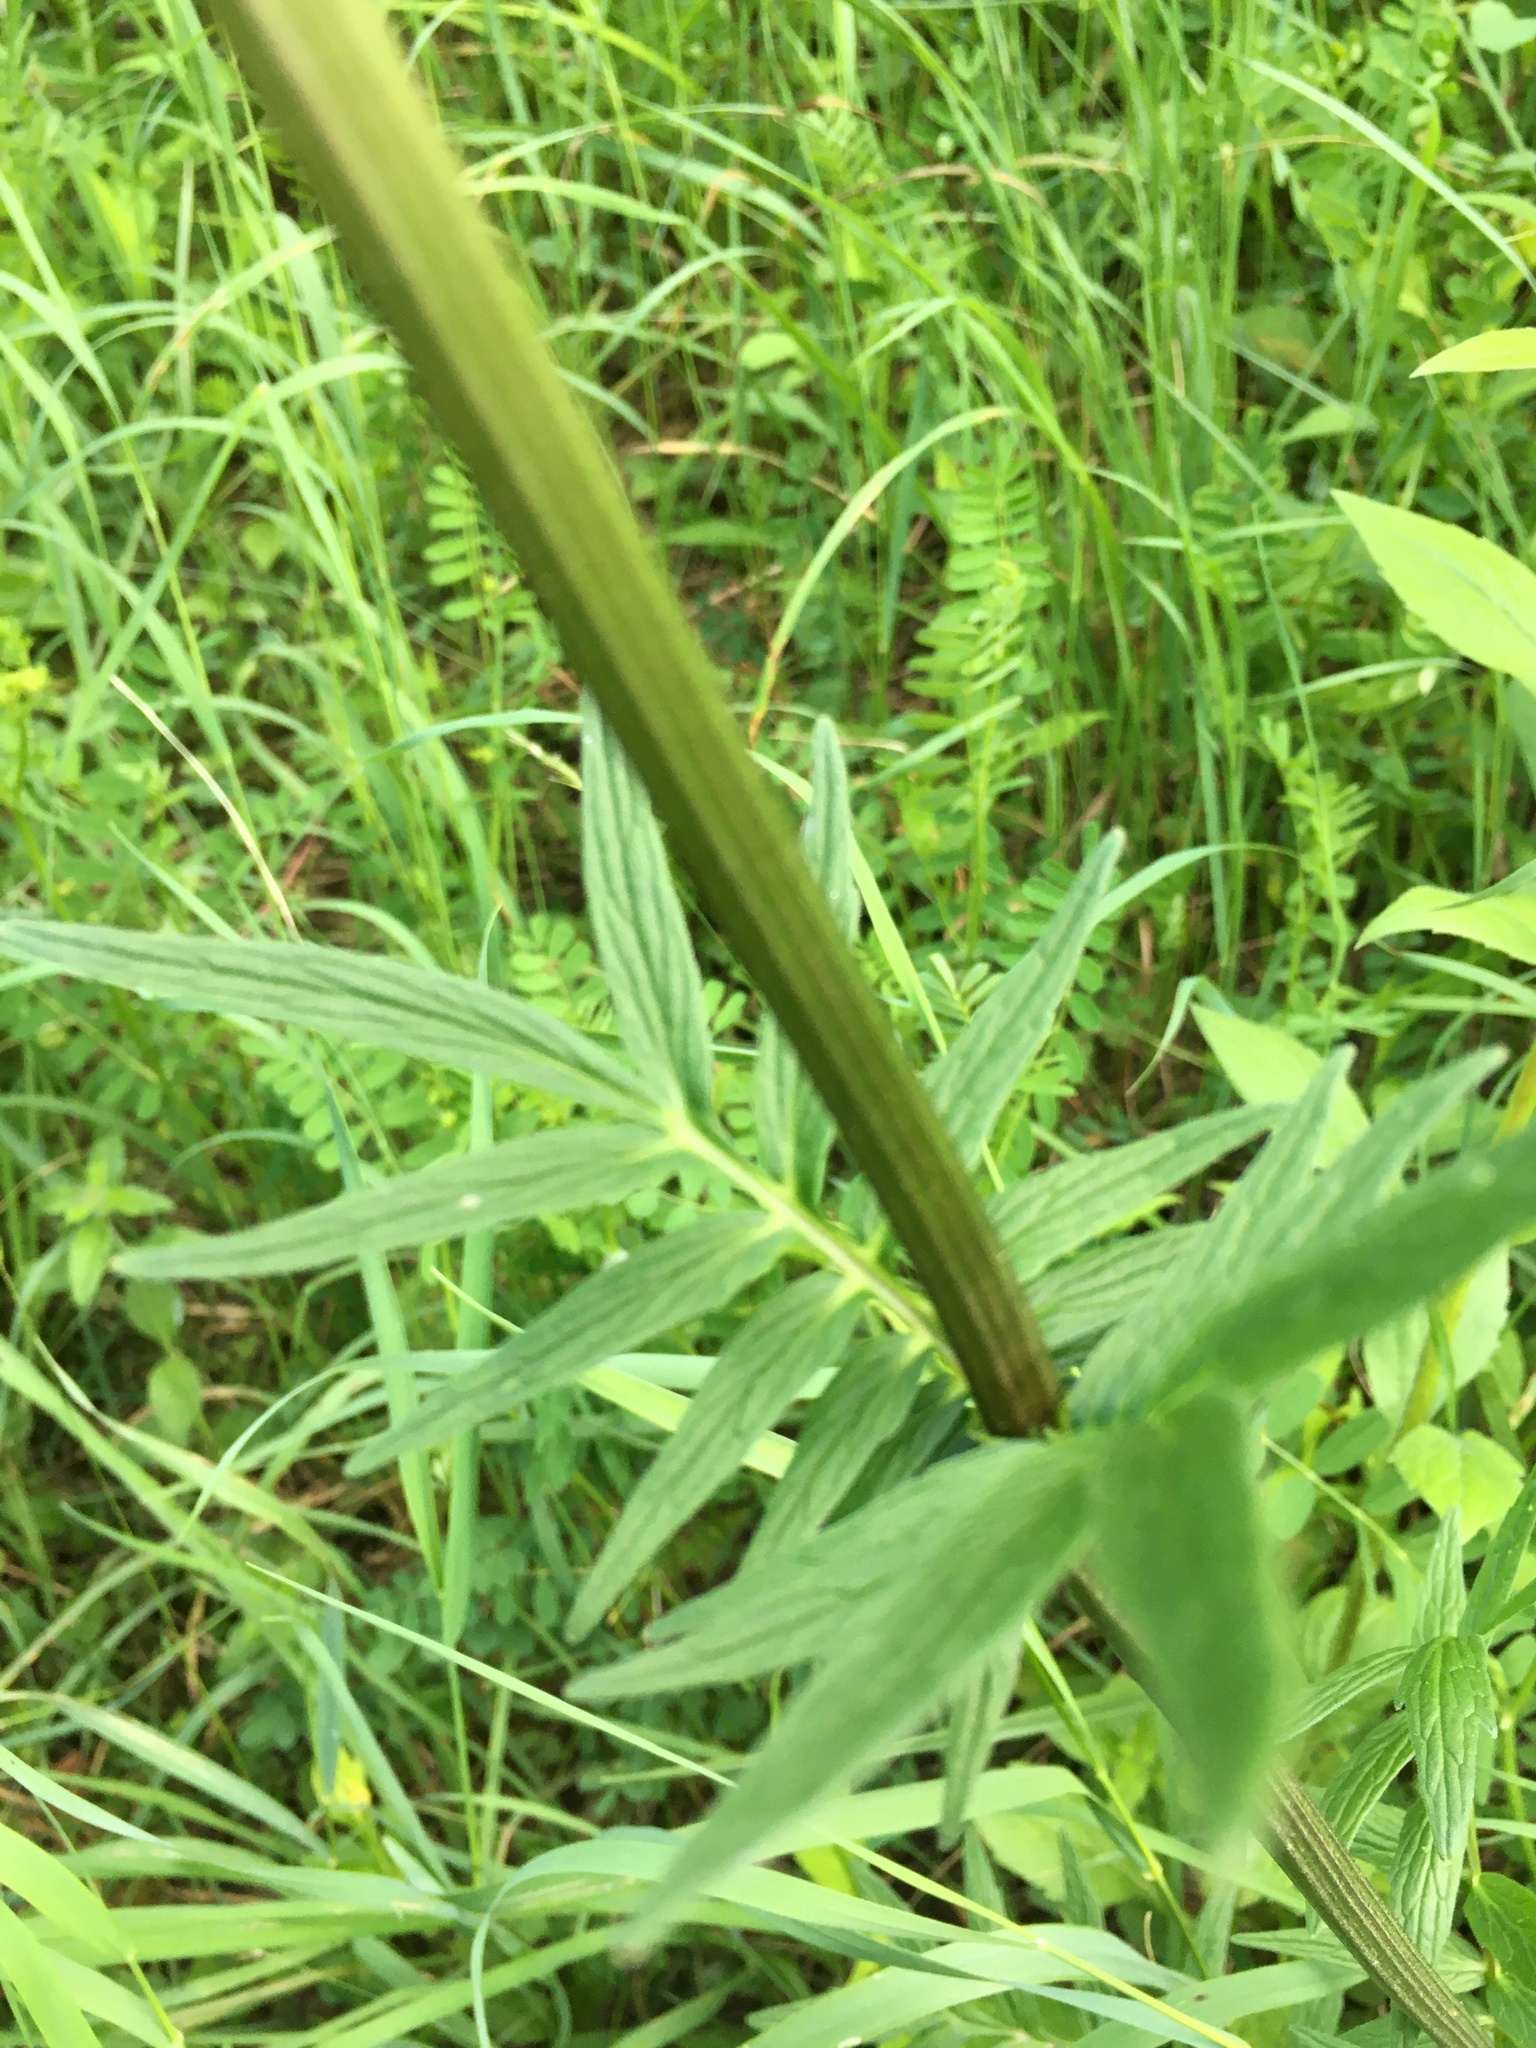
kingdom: Plantae
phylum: Tracheophyta
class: Magnoliopsida
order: Dipsacales
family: Caprifoliaceae
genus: Valeriana
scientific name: Valeriana officinalis
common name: Common valerian
